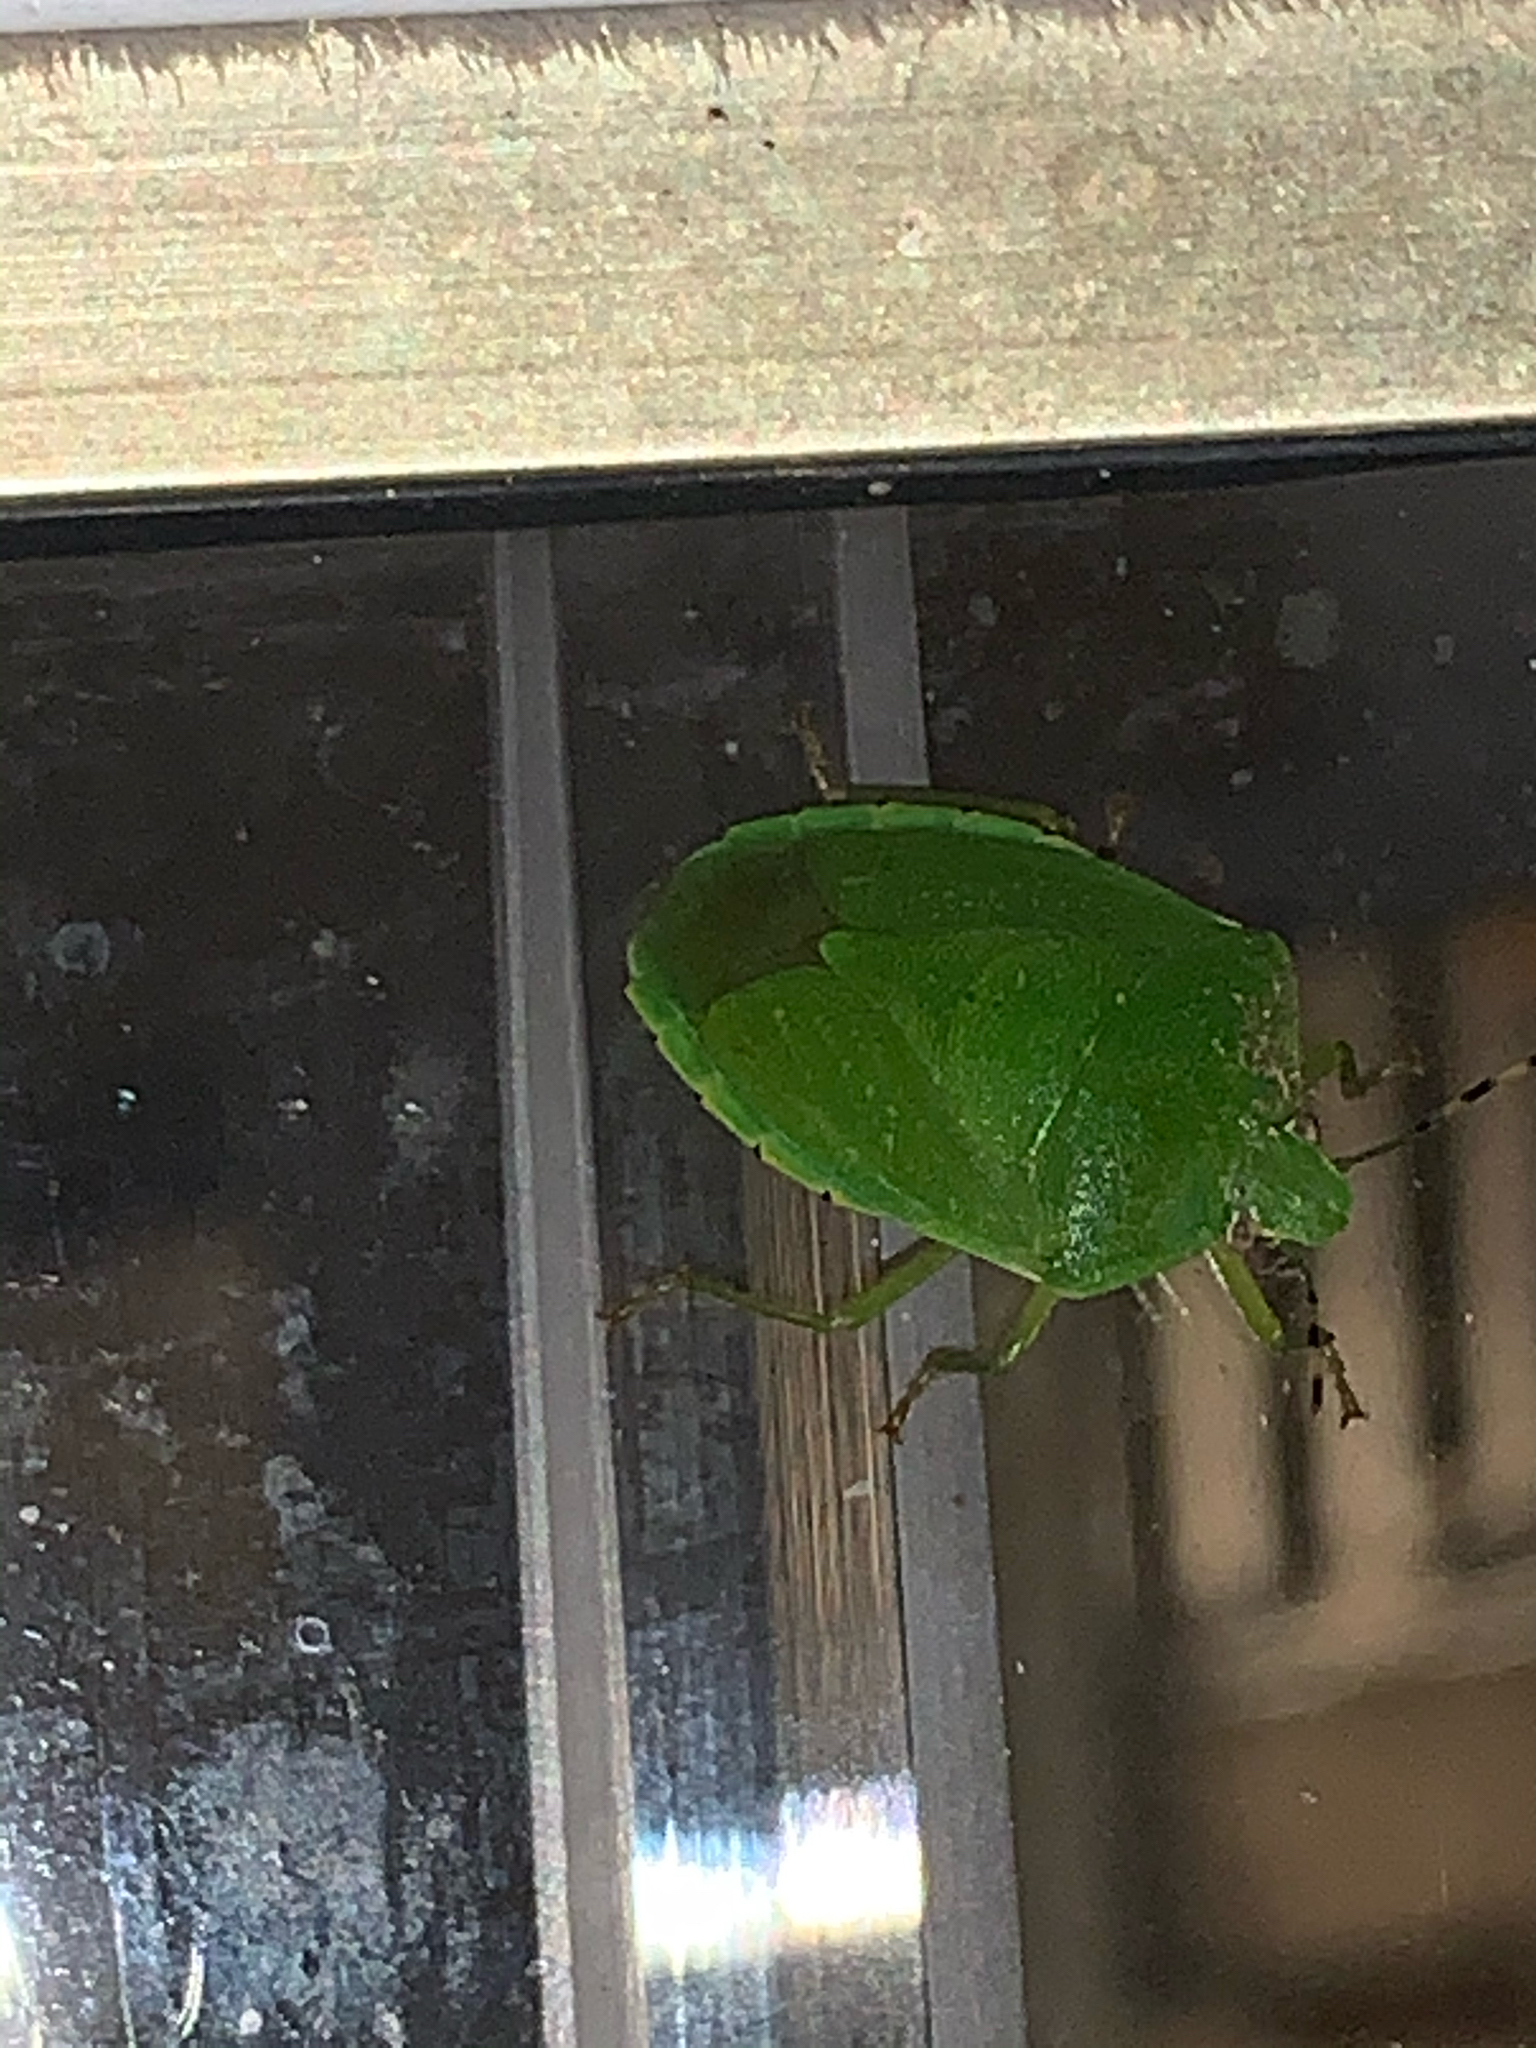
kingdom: Animalia
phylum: Arthropoda
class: Insecta
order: Hemiptera
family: Pentatomidae
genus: Chinavia
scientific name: Chinavia hilaris
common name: Green stink bug
